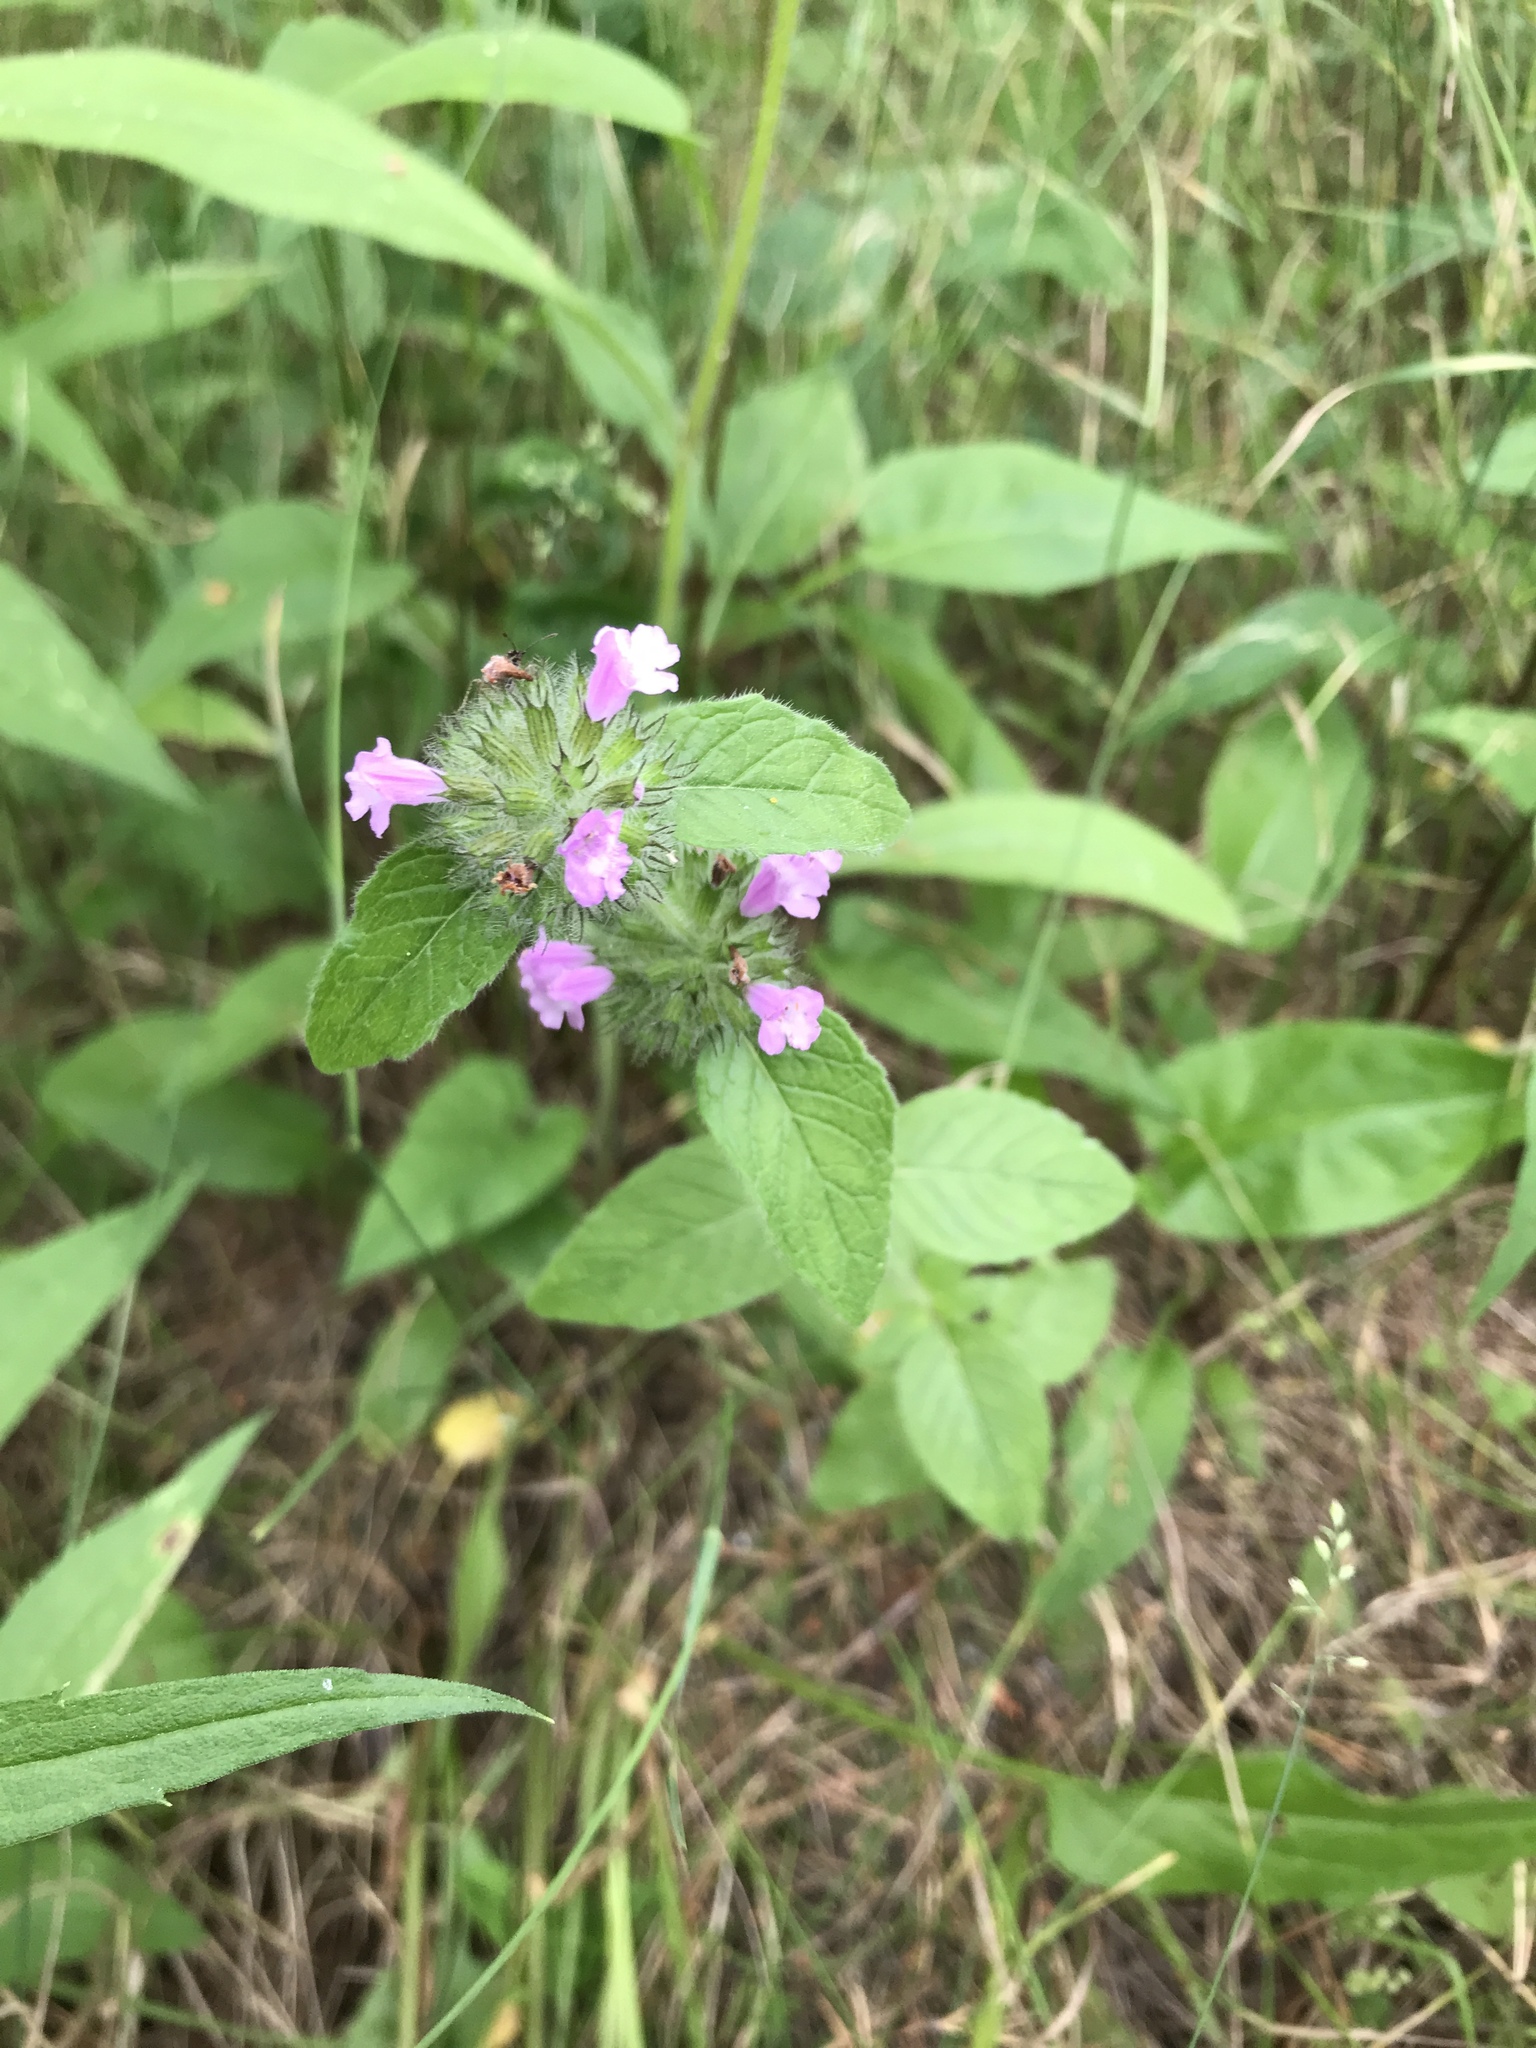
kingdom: Plantae
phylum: Tracheophyta
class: Magnoliopsida
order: Lamiales
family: Lamiaceae
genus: Clinopodium
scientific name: Clinopodium vulgare
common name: Wild basil
